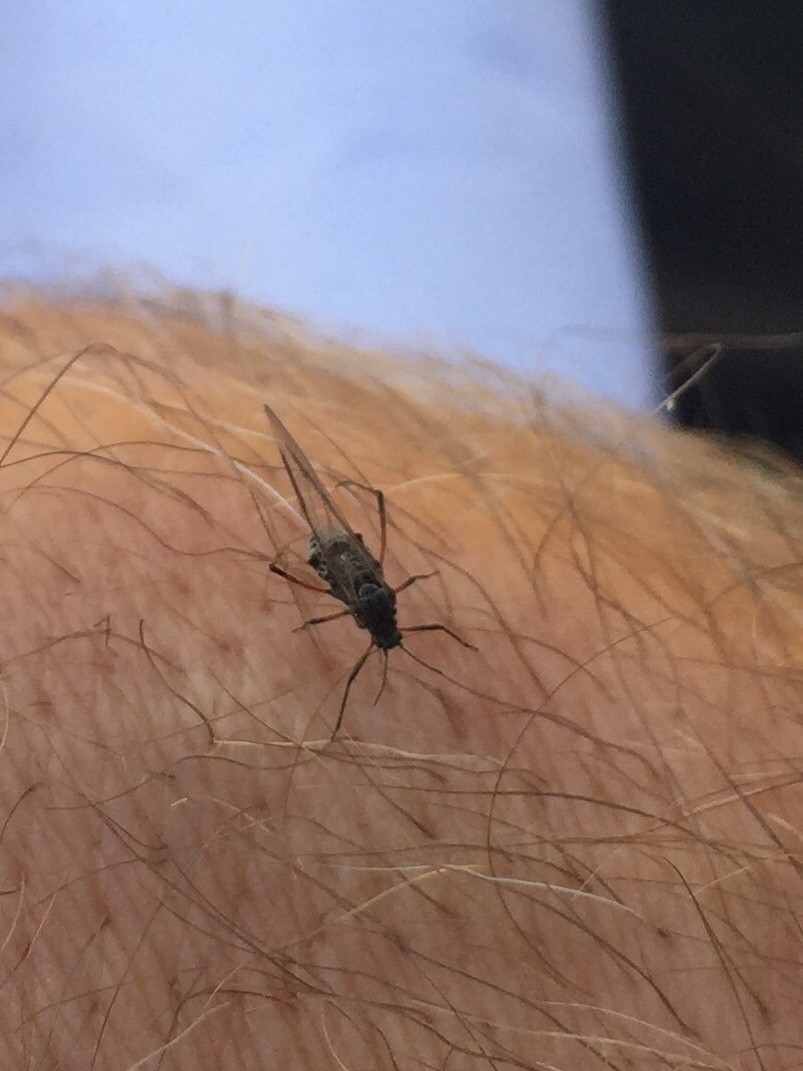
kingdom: Animalia
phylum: Arthropoda
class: Insecta
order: Hemiptera
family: Aphididae
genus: Tuberolachnus
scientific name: Tuberolachnus salignus
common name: Giant willow aphid
